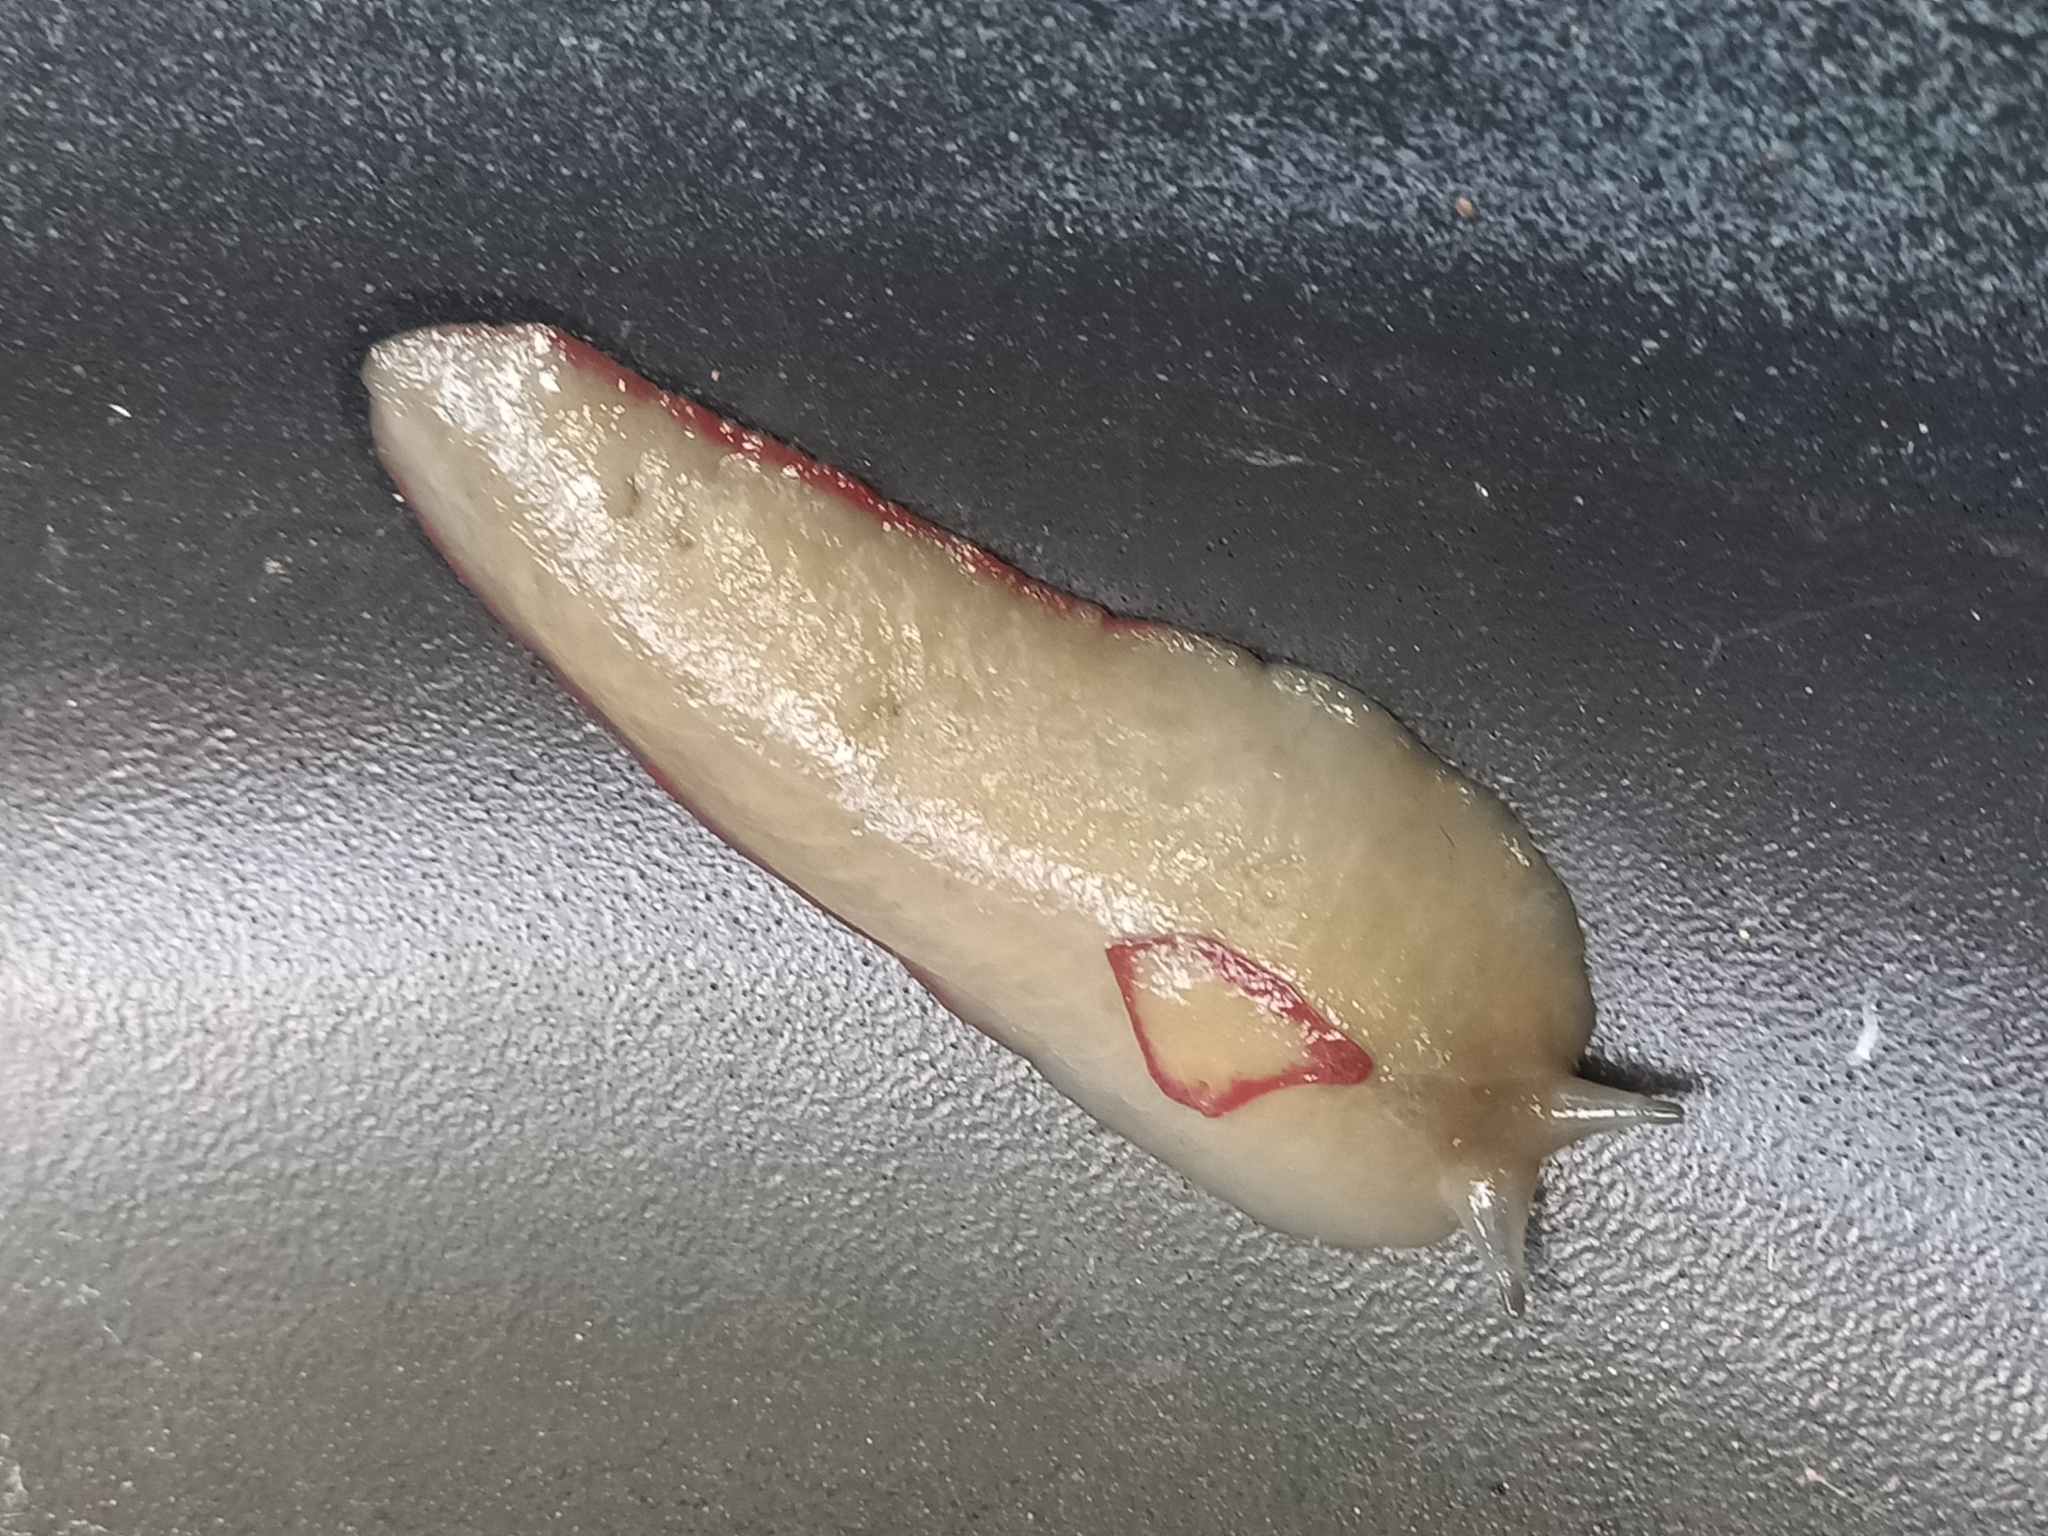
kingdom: Animalia
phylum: Mollusca
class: Gastropoda
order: Stylommatophora
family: Athoracophoridae
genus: Triboniophorus
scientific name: Triboniophorus graeffei
